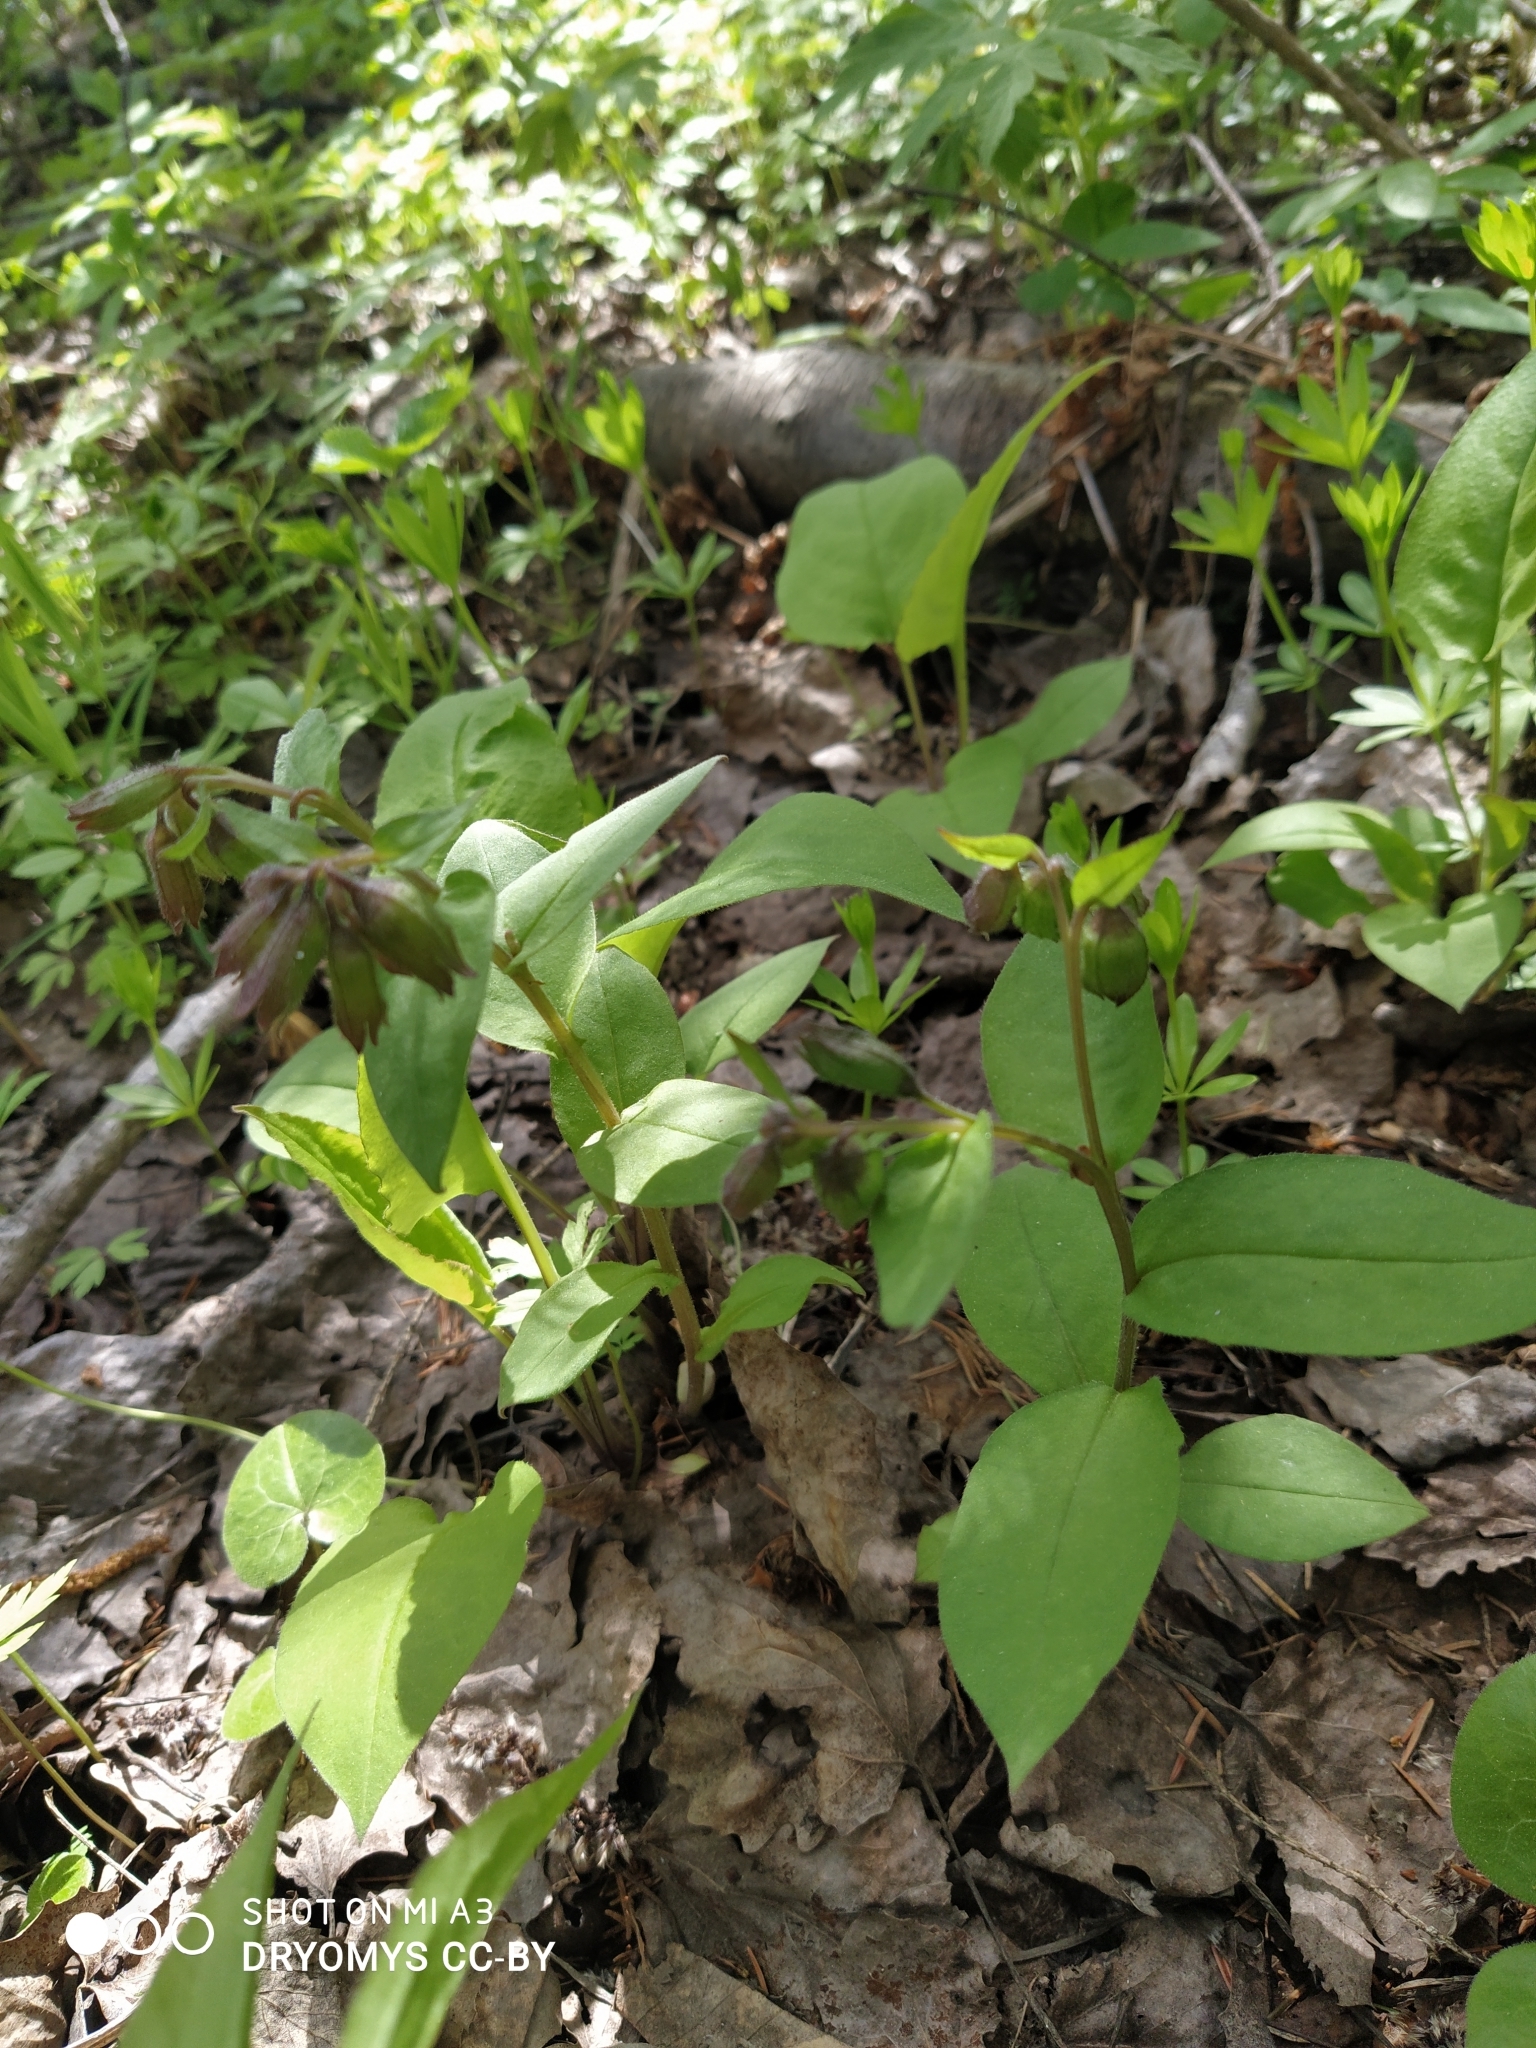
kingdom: Plantae
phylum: Tracheophyta
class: Magnoliopsida
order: Boraginales
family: Boraginaceae
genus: Pulmonaria
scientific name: Pulmonaria obscura
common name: Suffolk lungwort
